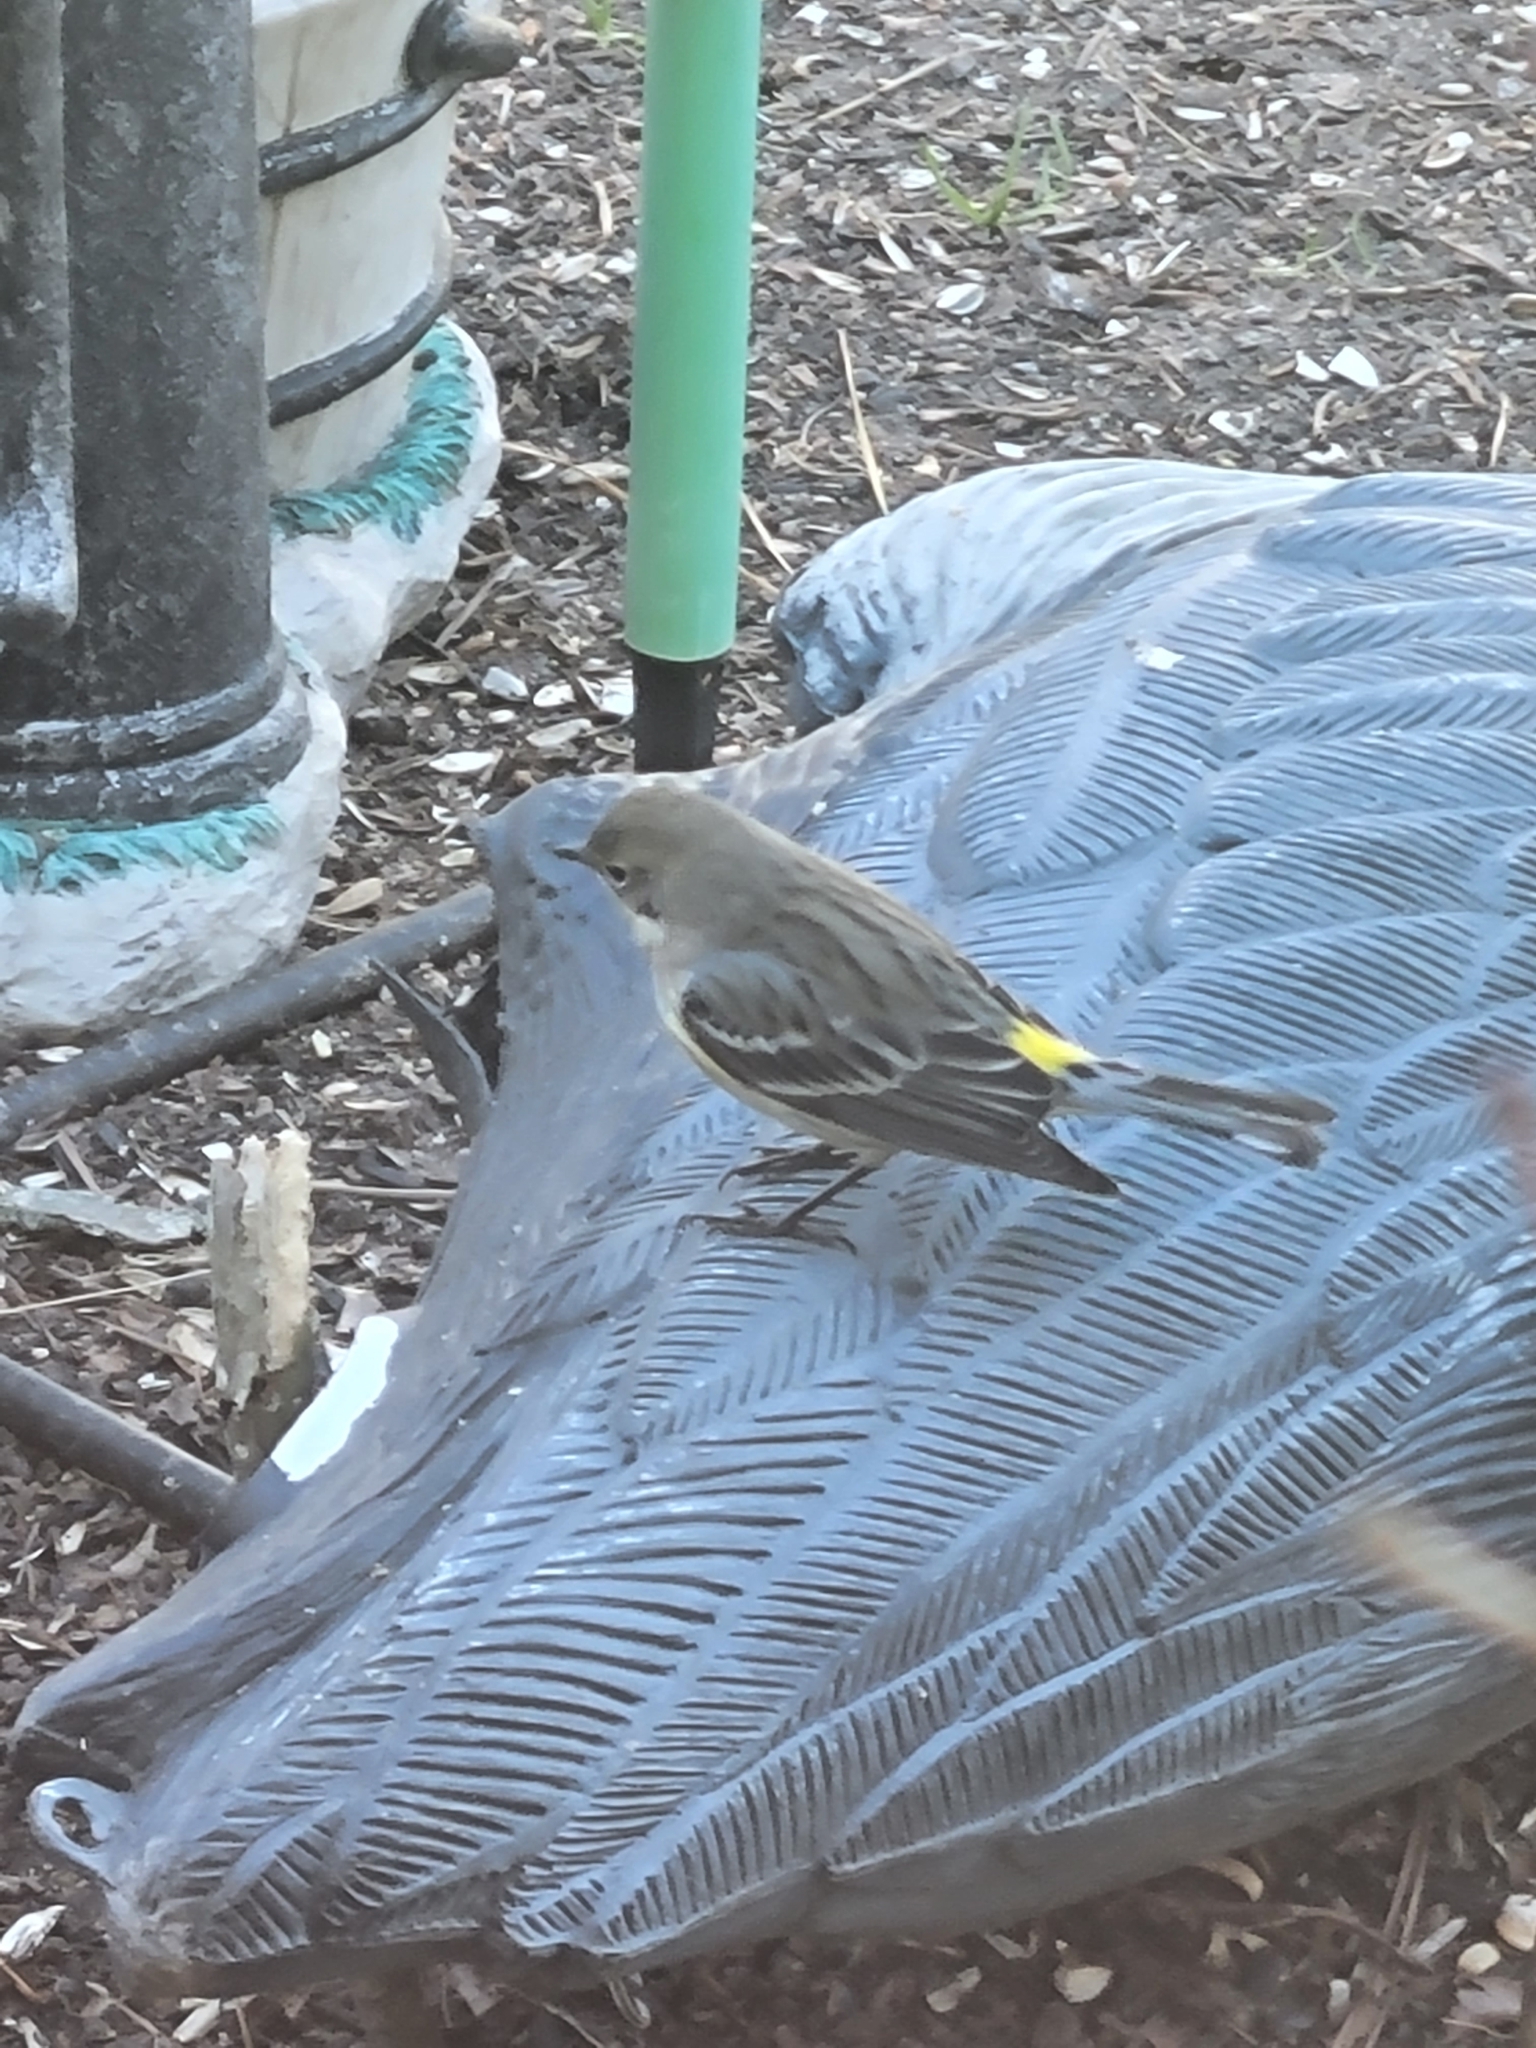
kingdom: Animalia
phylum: Chordata
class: Aves
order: Passeriformes
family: Parulidae
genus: Setophaga
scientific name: Setophaga coronata
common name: Myrtle warbler
